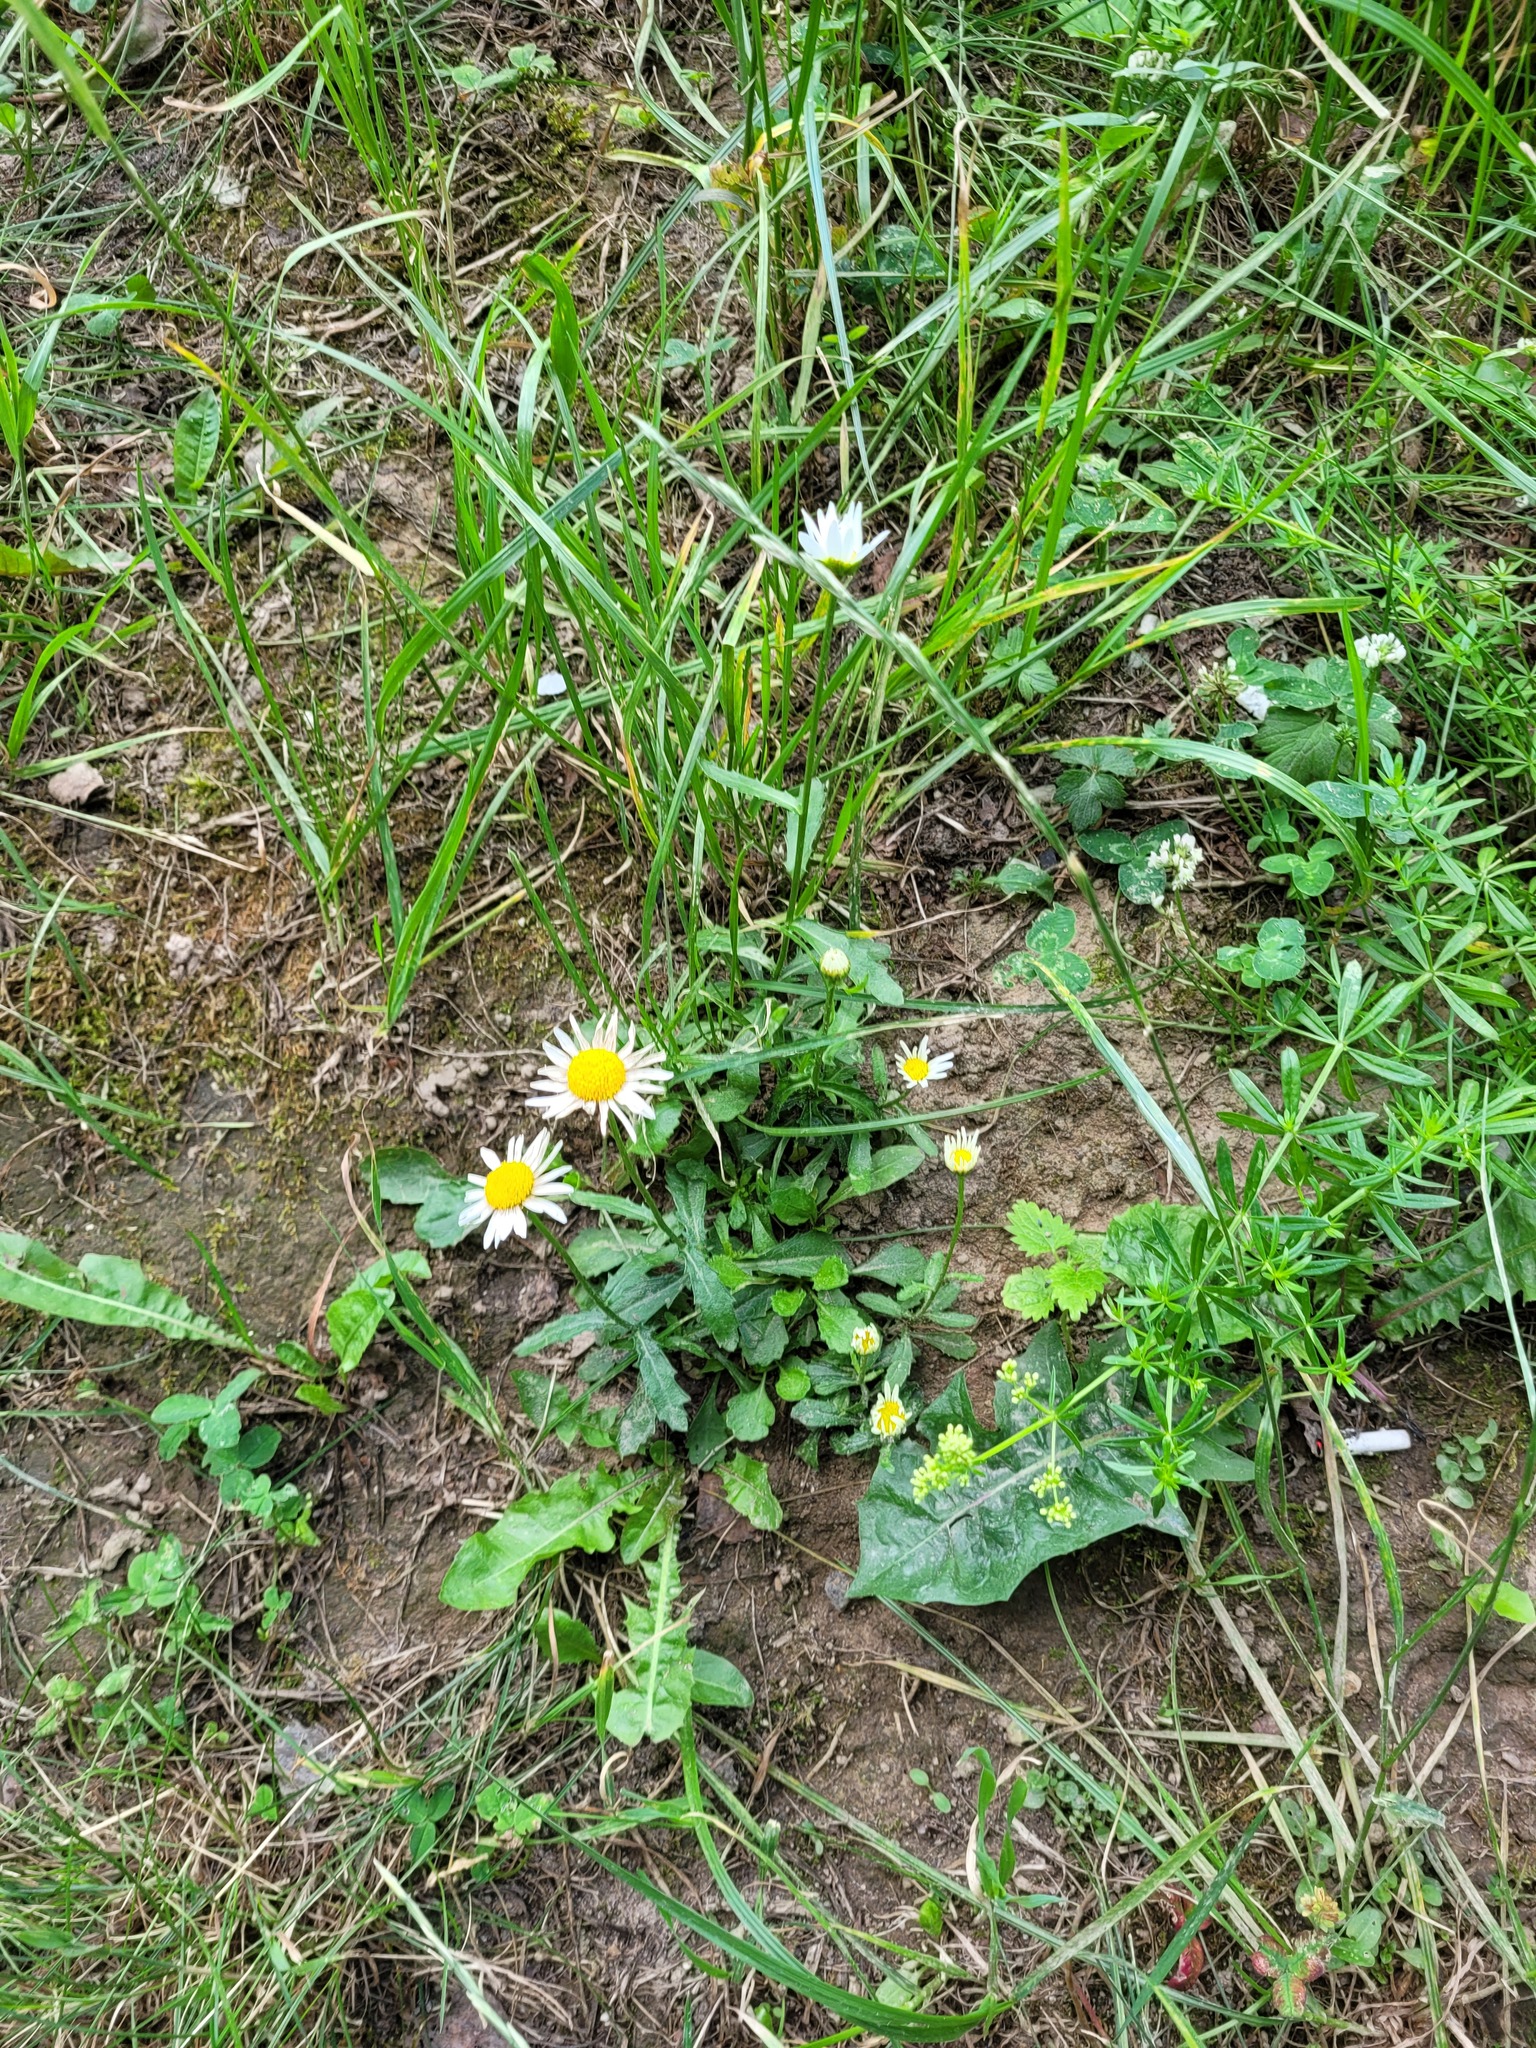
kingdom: Plantae
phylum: Tracheophyta
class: Magnoliopsida
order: Asterales
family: Asteraceae
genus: Leucanthemum
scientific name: Leucanthemum vulgare
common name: Oxeye daisy
